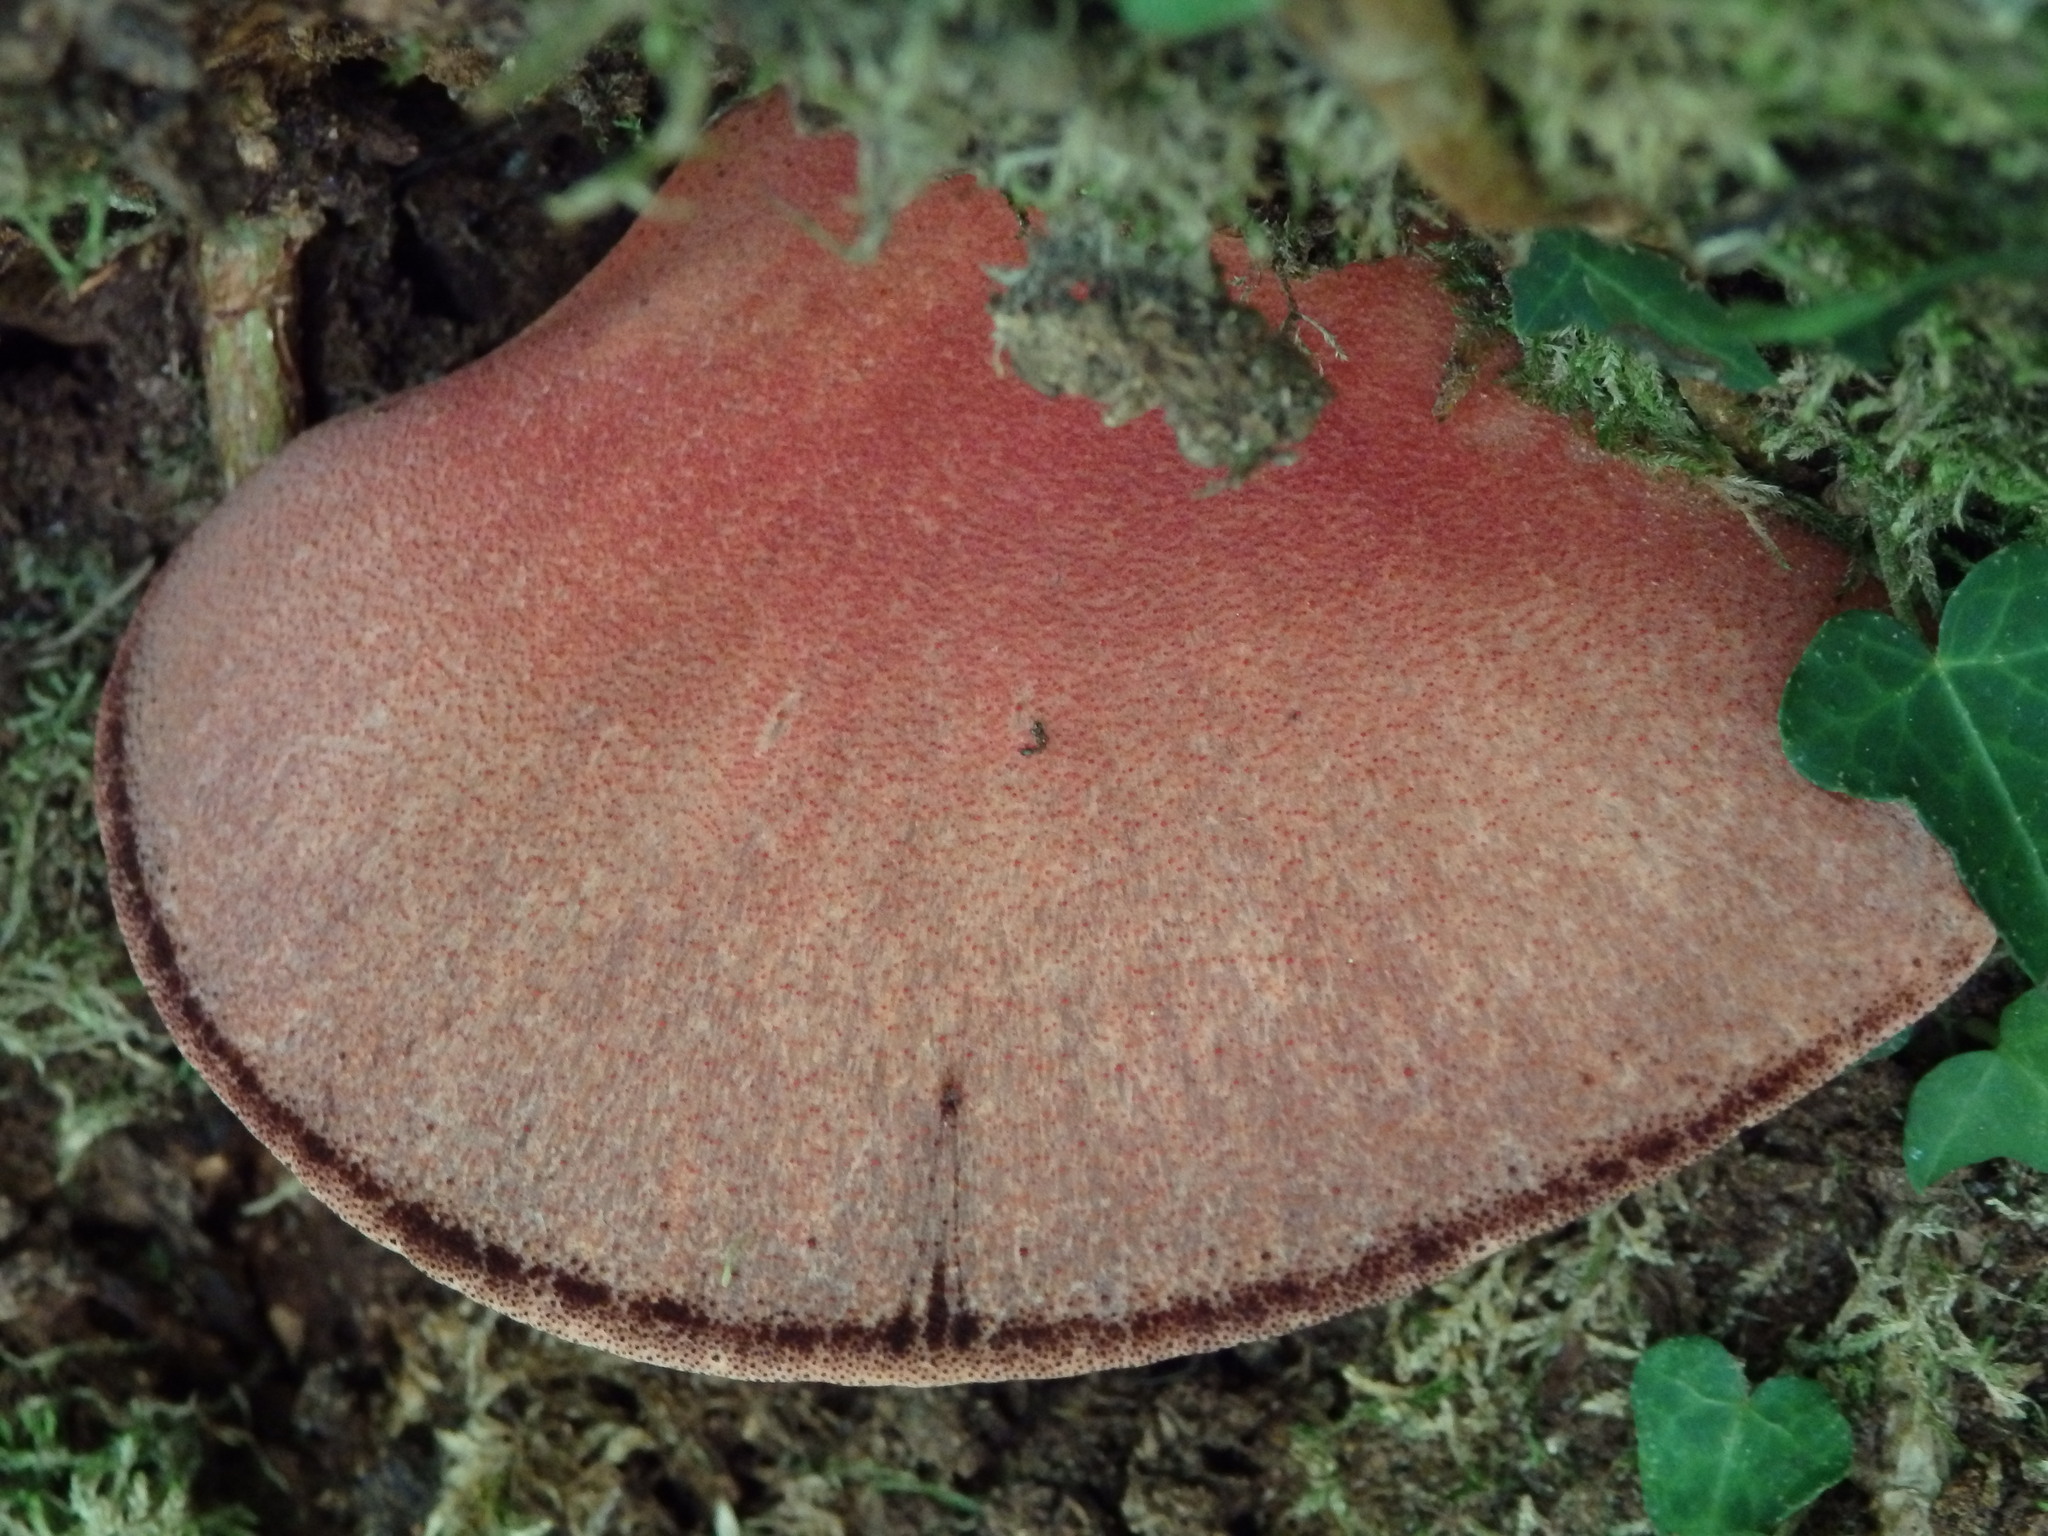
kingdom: Fungi
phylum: Basidiomycota
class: Agaricomycetes
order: Agaricales
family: Fistulinaceae
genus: Fistulina
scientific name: Fistulina hepatica
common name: Beef-steak fungus
